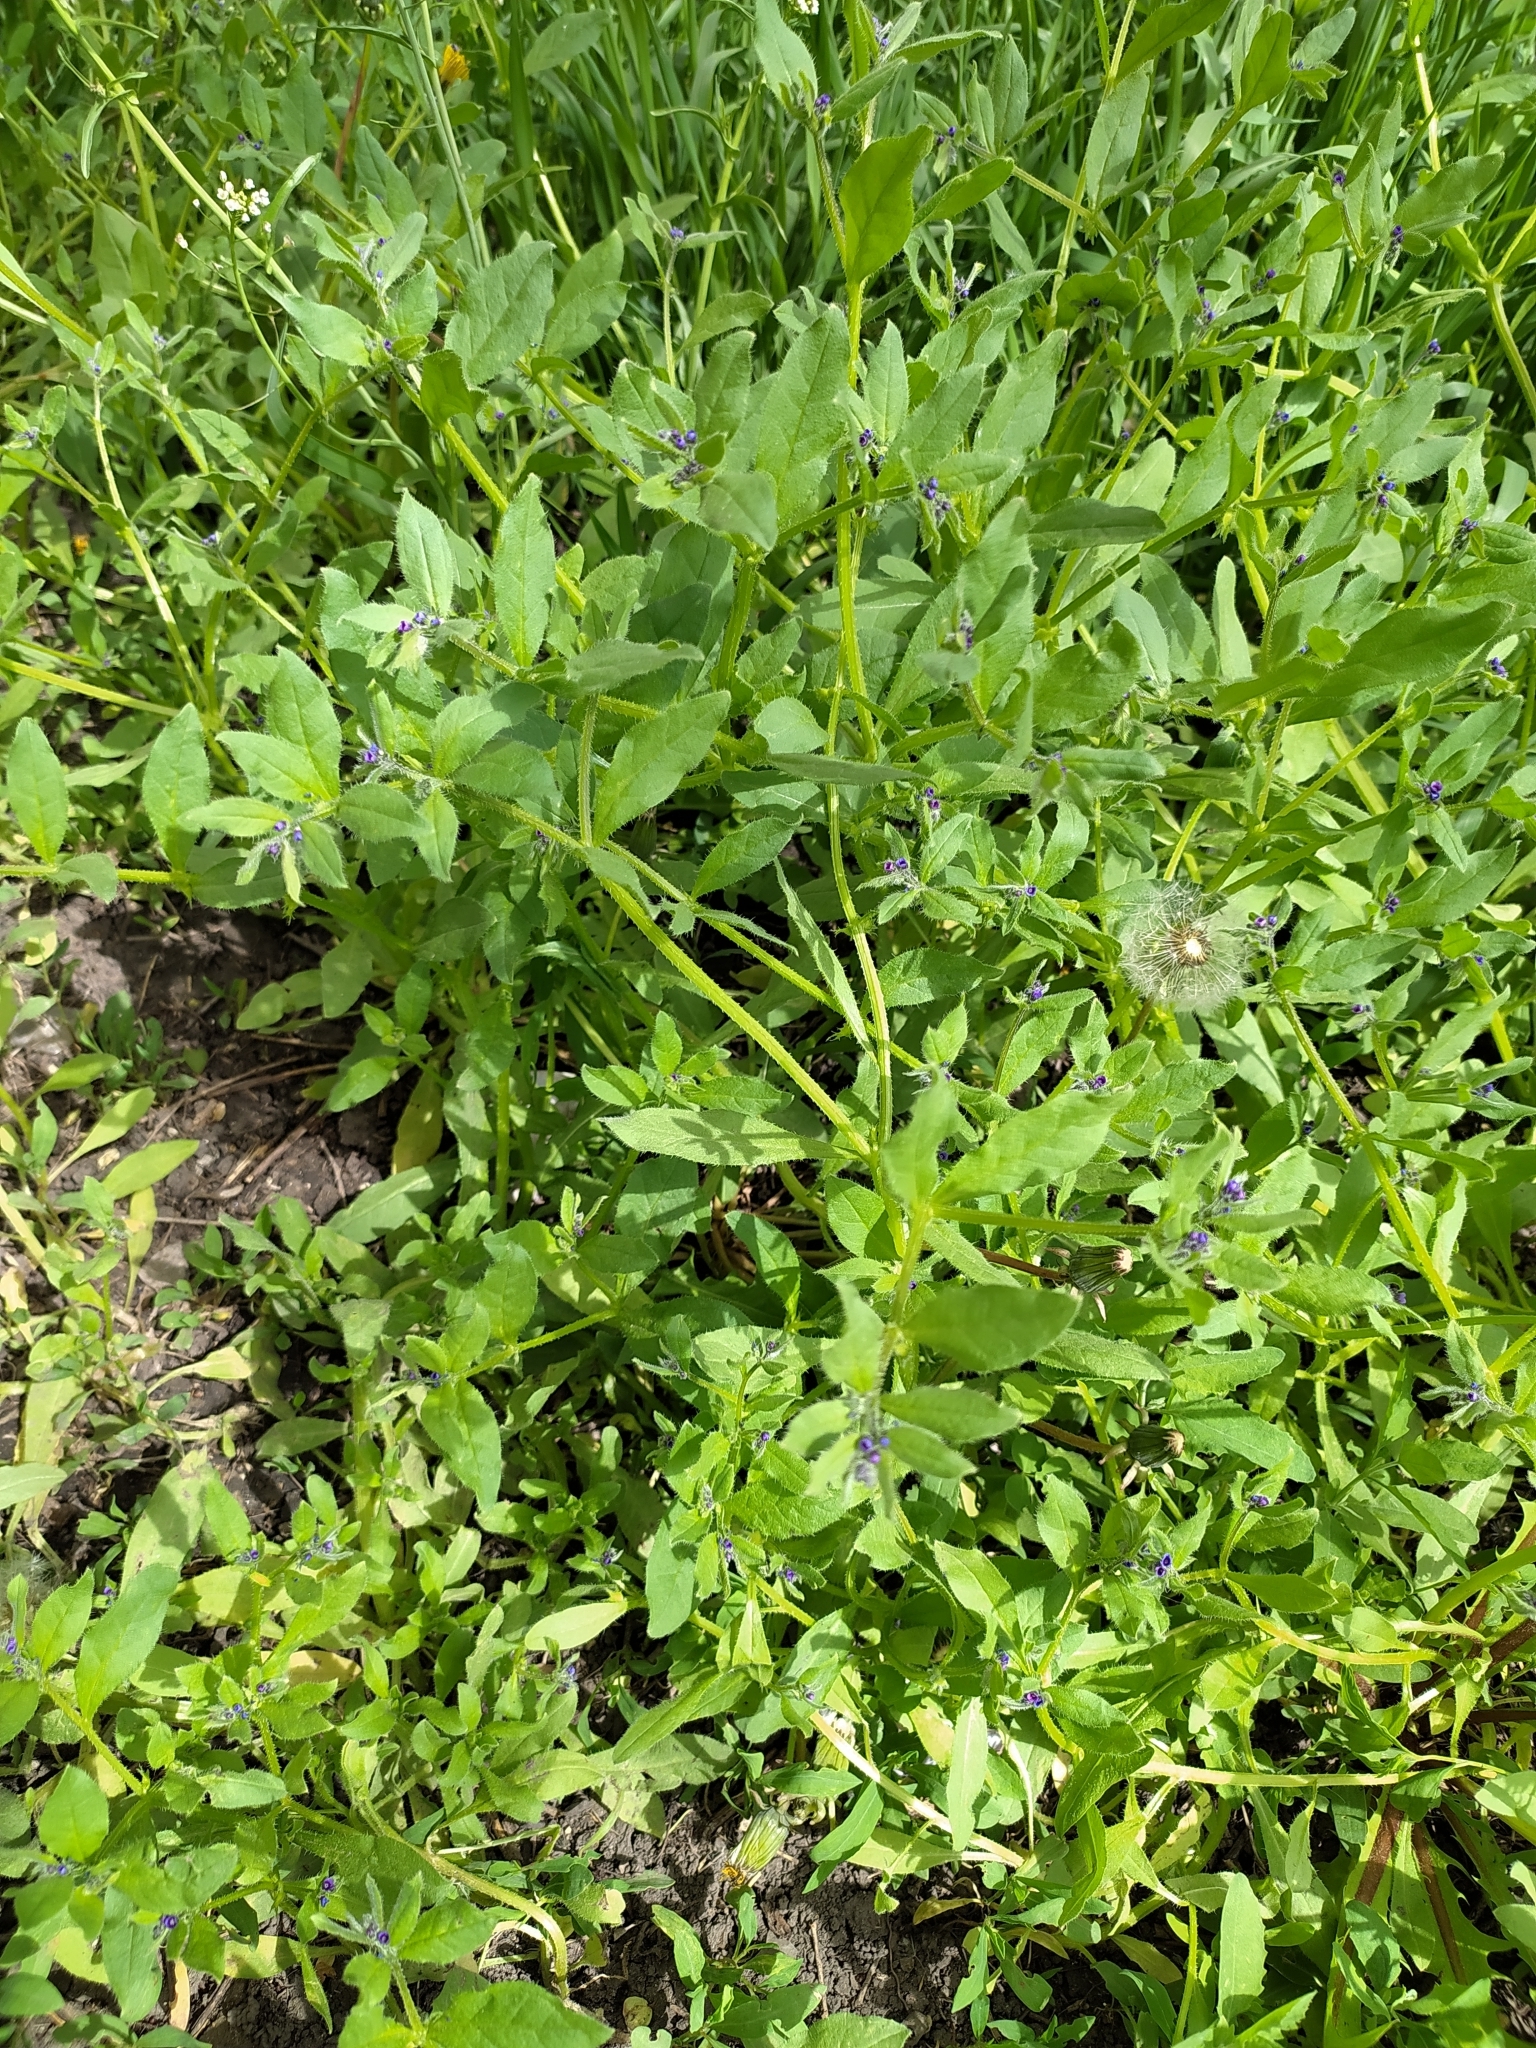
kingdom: Plantae
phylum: Tracheophyta
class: Magnoliopsida
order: Boraginales
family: Boraginaceae
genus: Asperugo
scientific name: Asperugo procumbens
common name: Madwort
